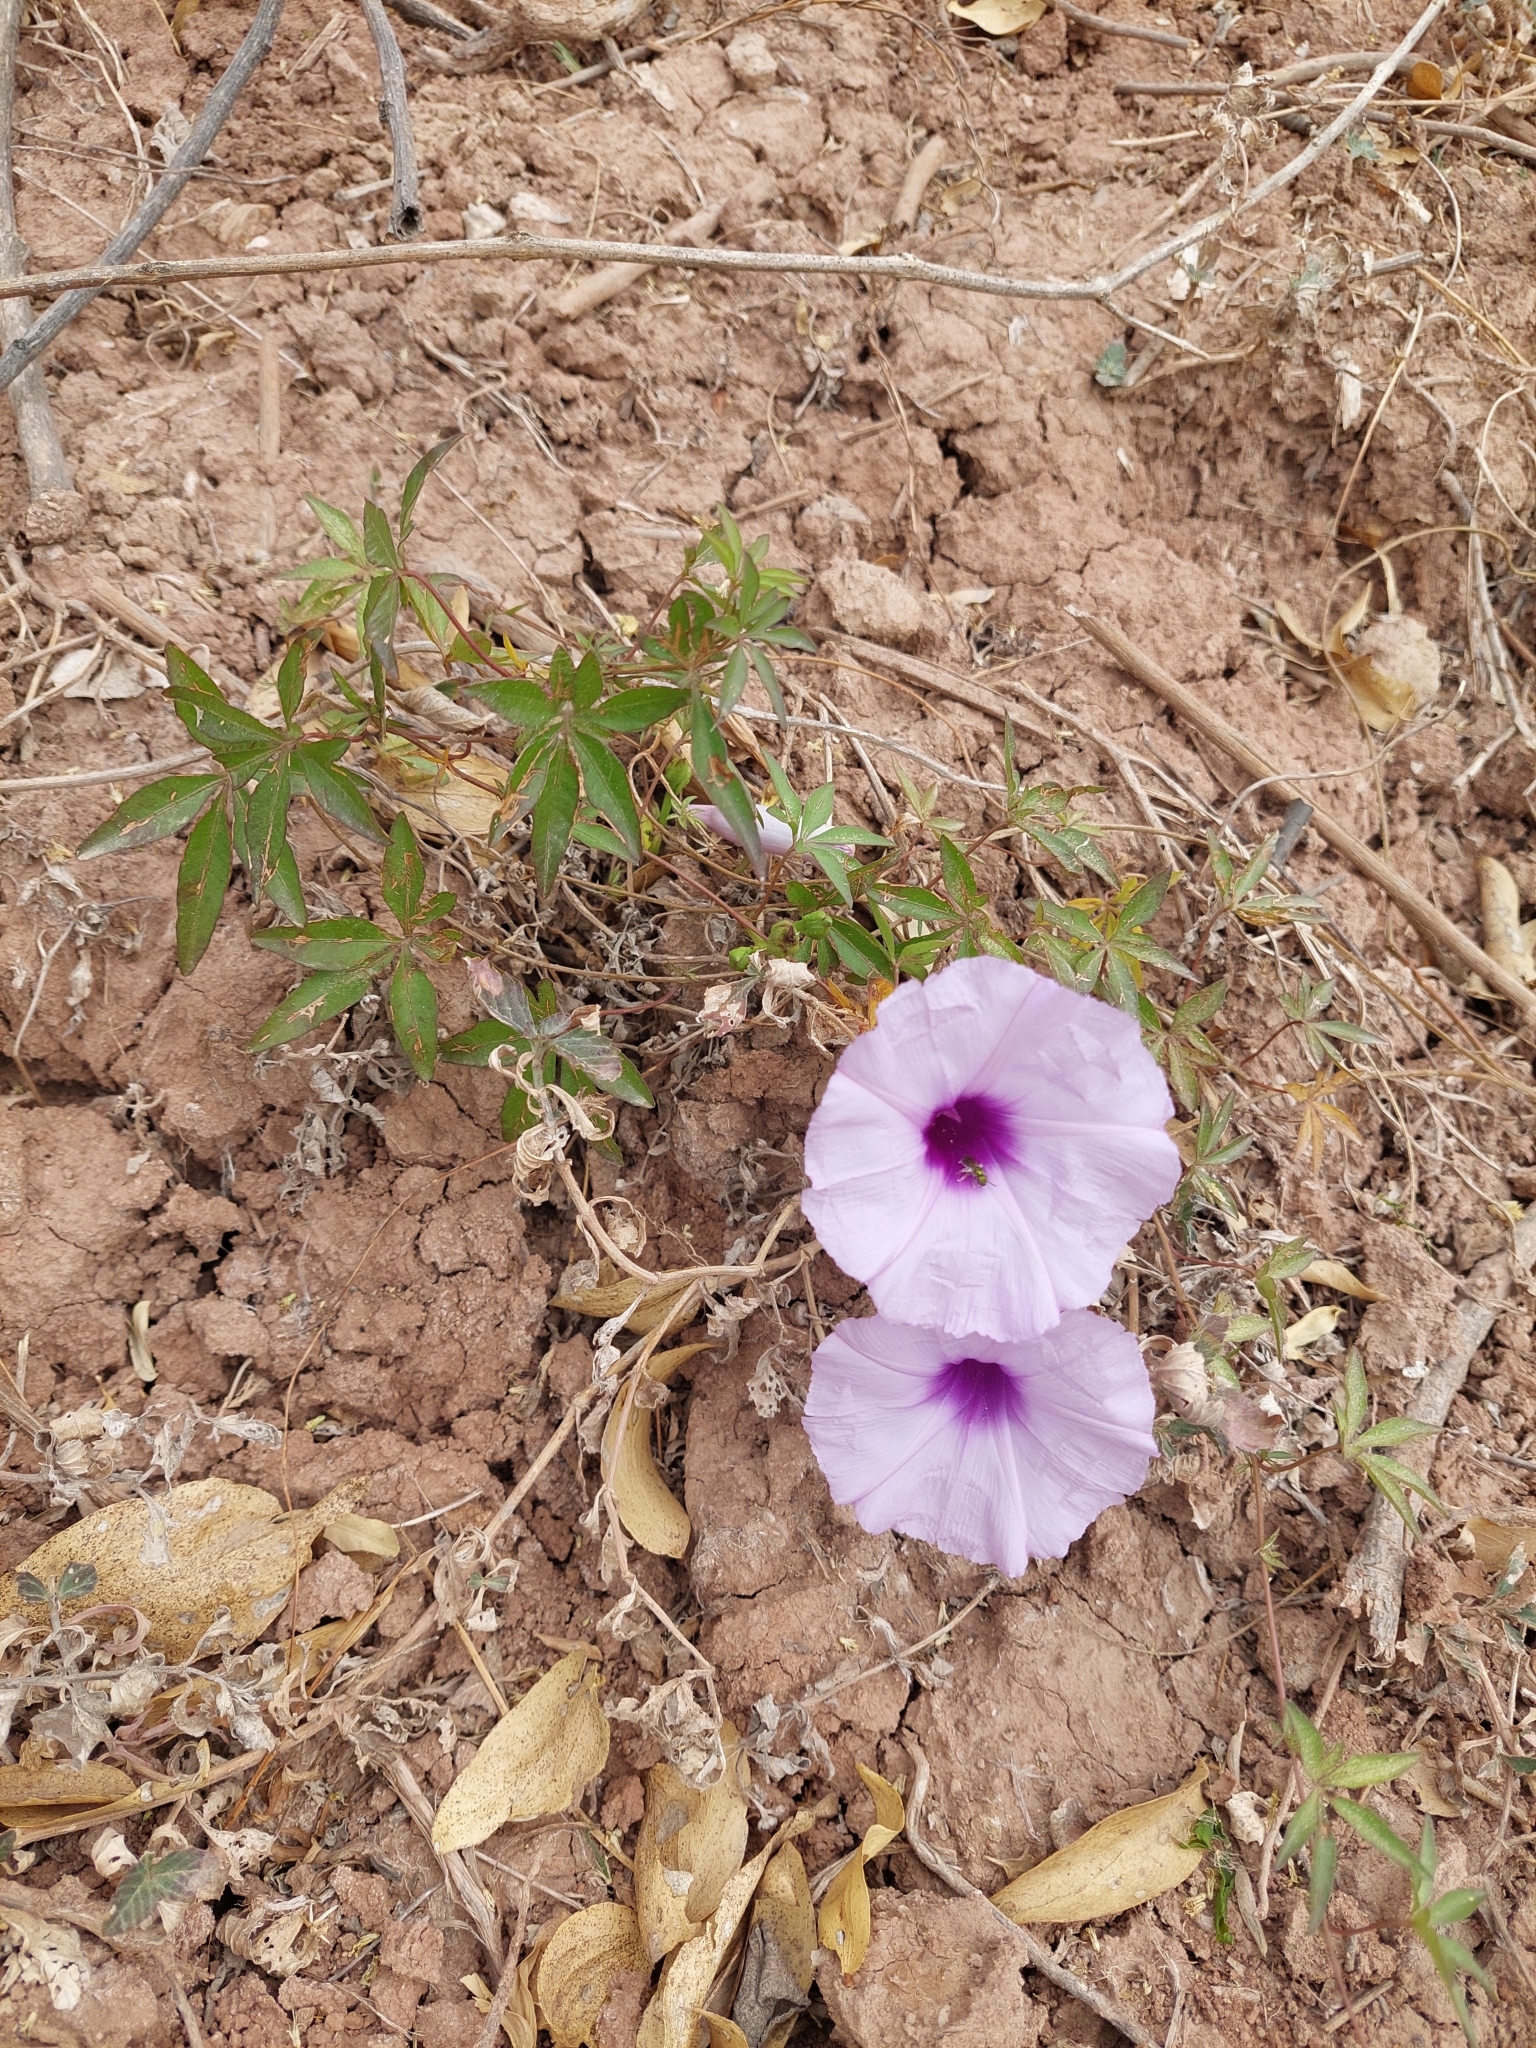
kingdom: Plantae
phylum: Tracheophyta
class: Magnoliopsida
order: Solanales
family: Convolvulaceae
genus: Ipomoea
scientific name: Ipomoea cairica
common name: Mile a minute vine
